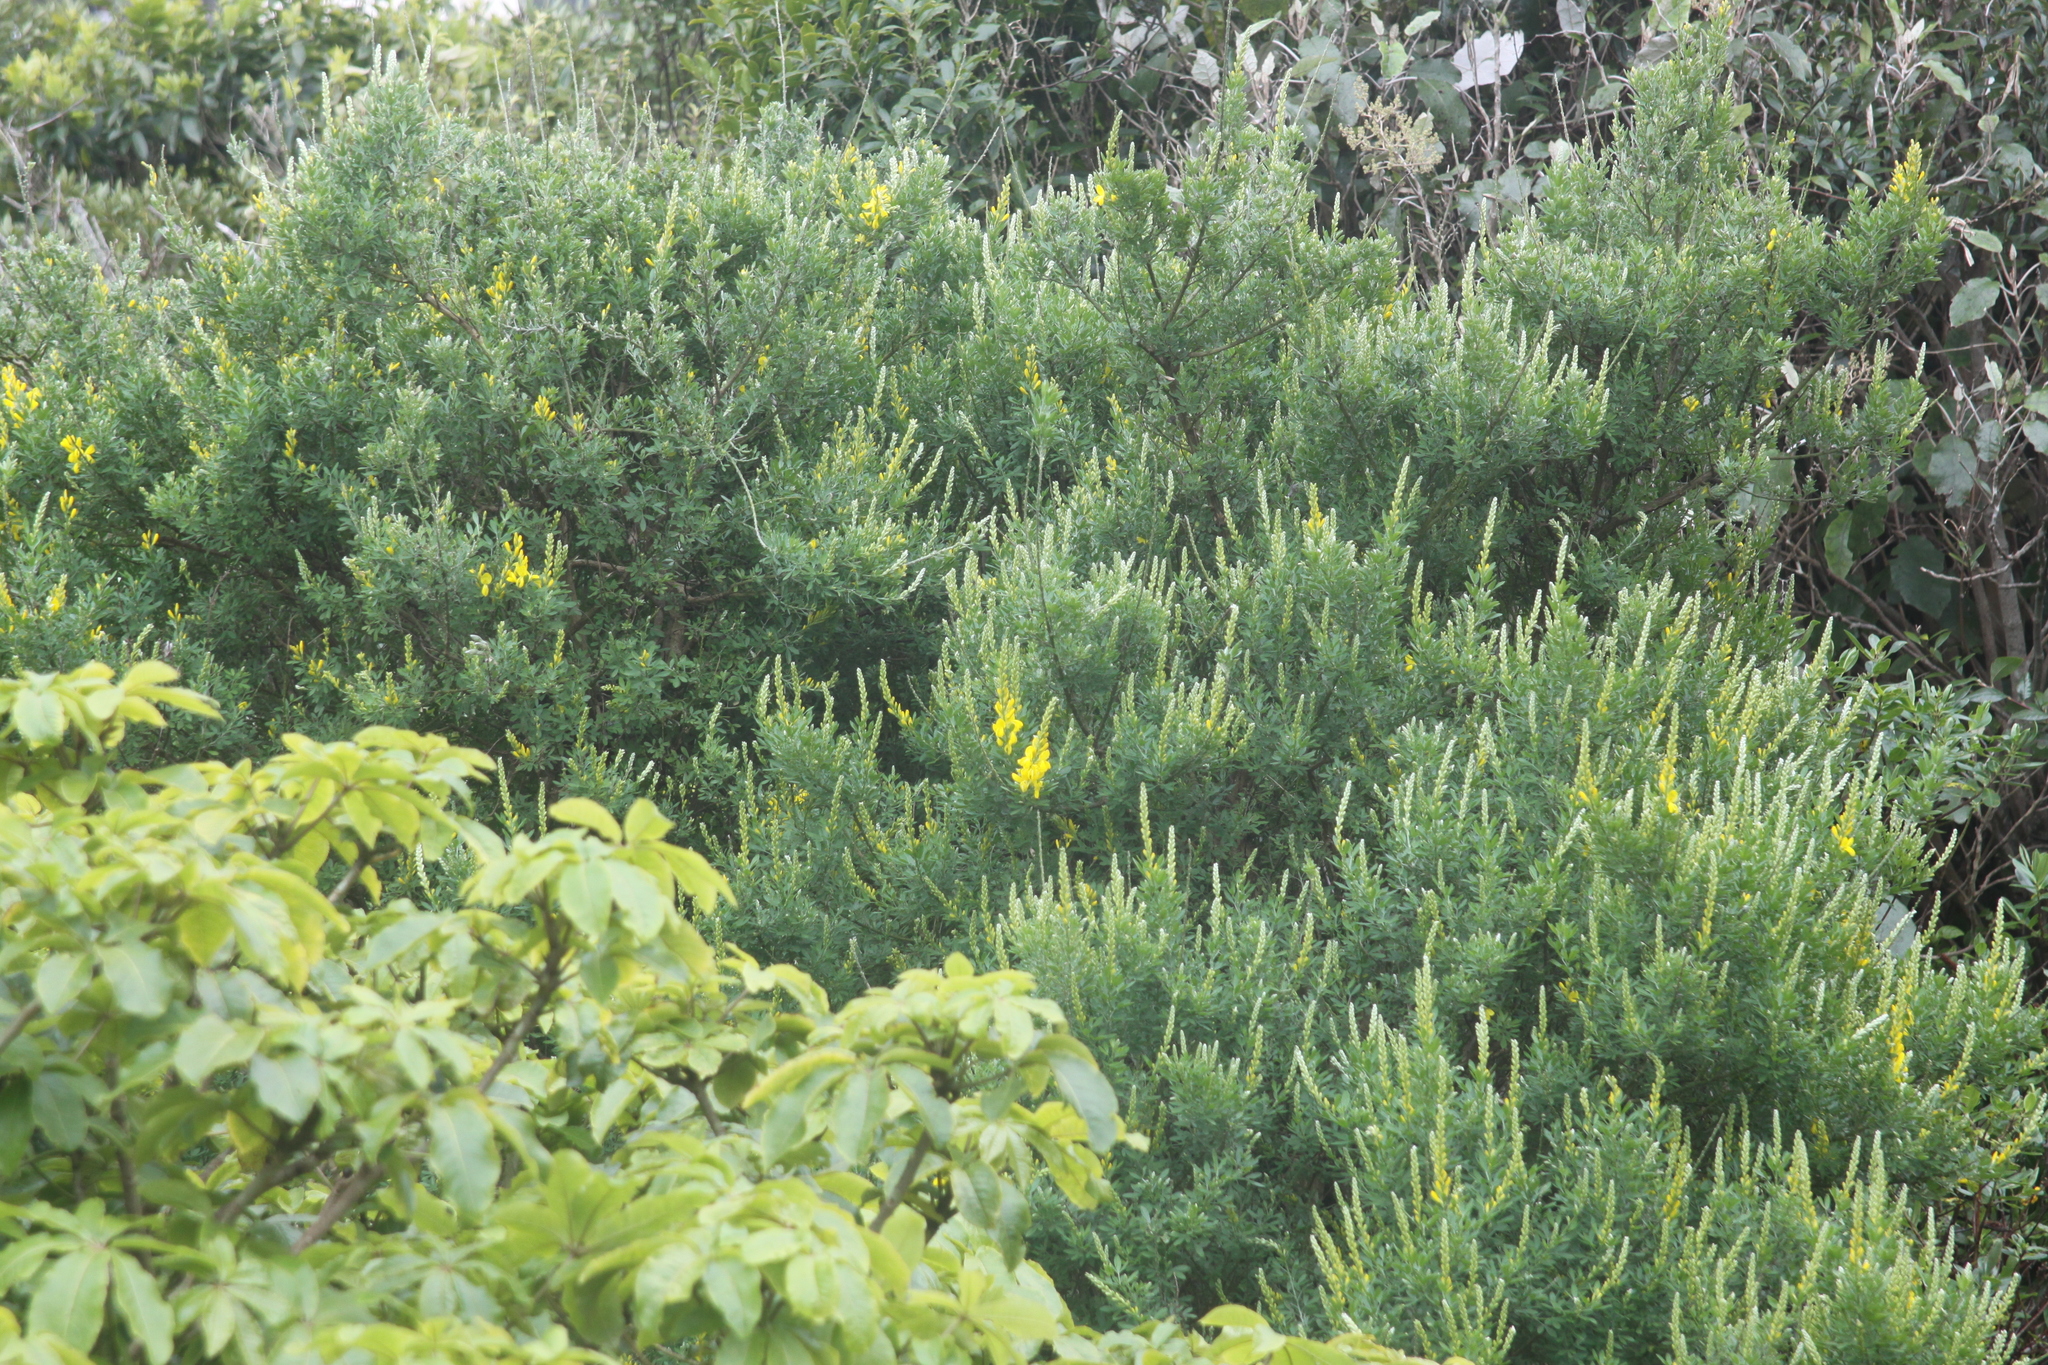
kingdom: Plantae
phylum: Tracheophyta
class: Magnoliopsida
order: Fabales
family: Fabaceae
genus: Genista
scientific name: Genista monspessulana
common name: Montpellier broom
